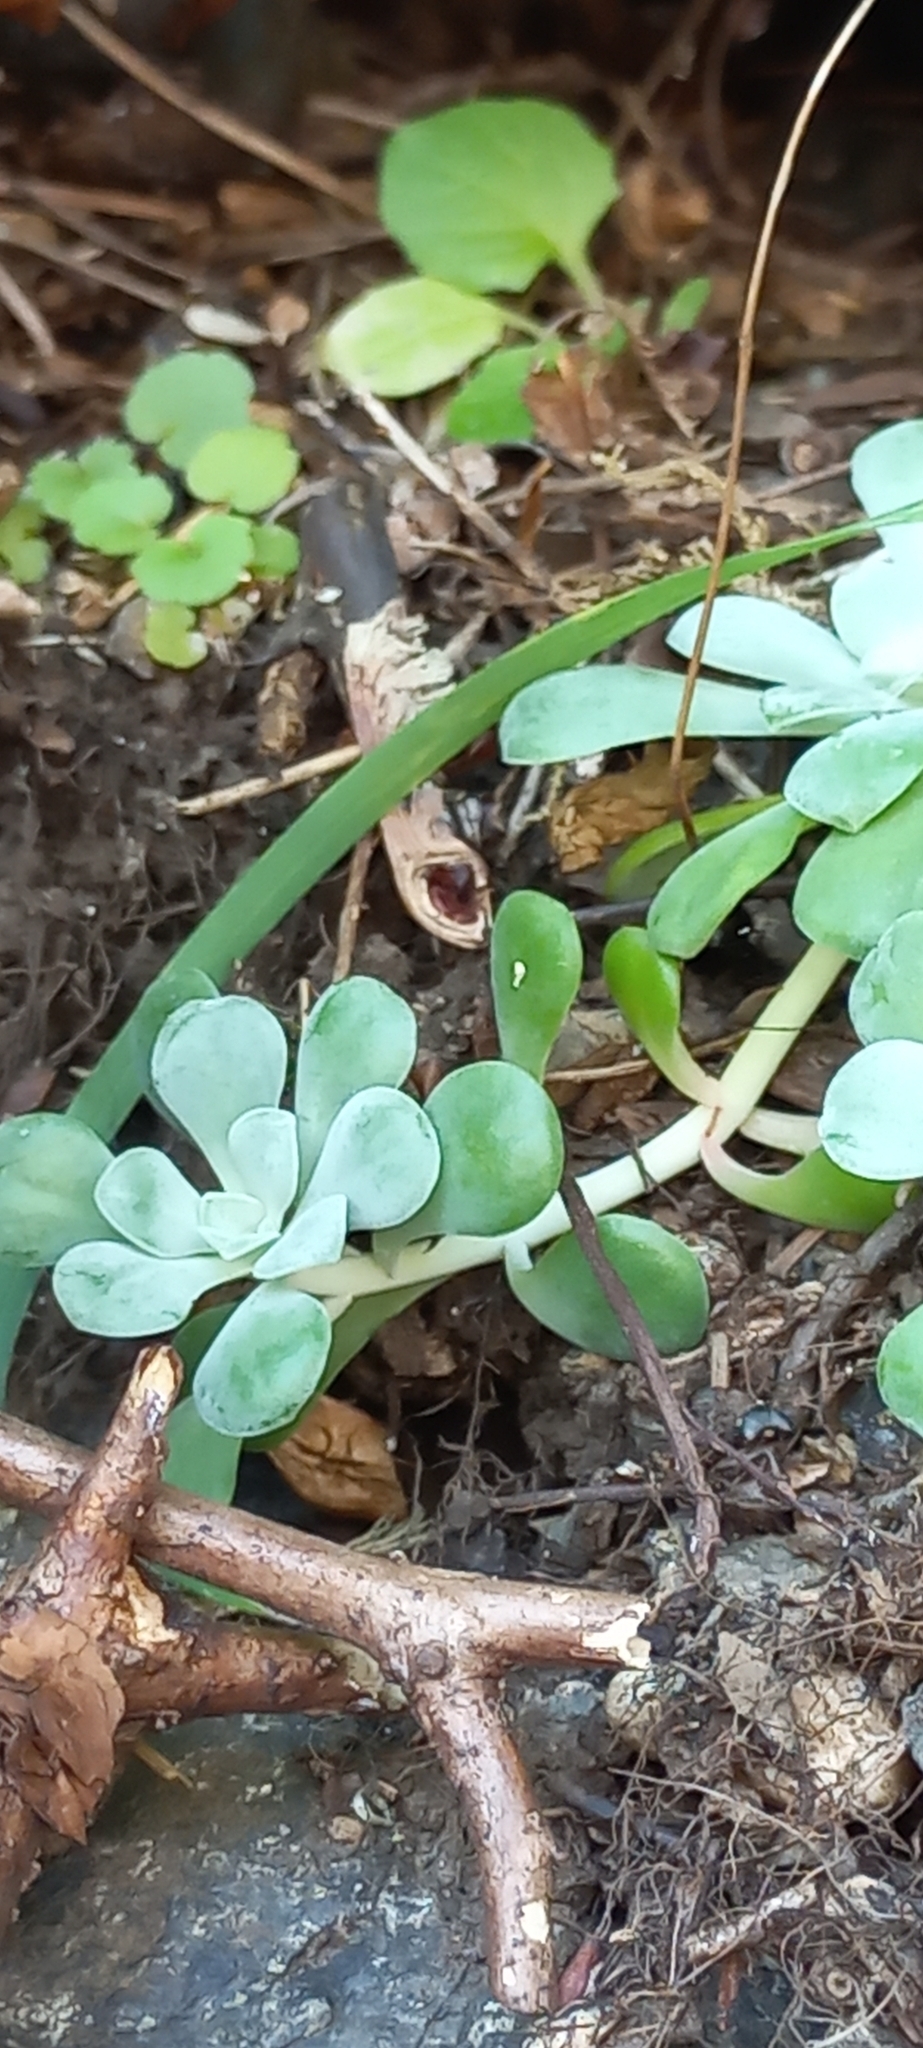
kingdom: Plantae
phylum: Tracheophyta
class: Magnoliopsida
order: Saxifragales
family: Crassulaceae
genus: Sedum
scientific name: Sedum spathulifolium
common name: Colorado stonecrop
